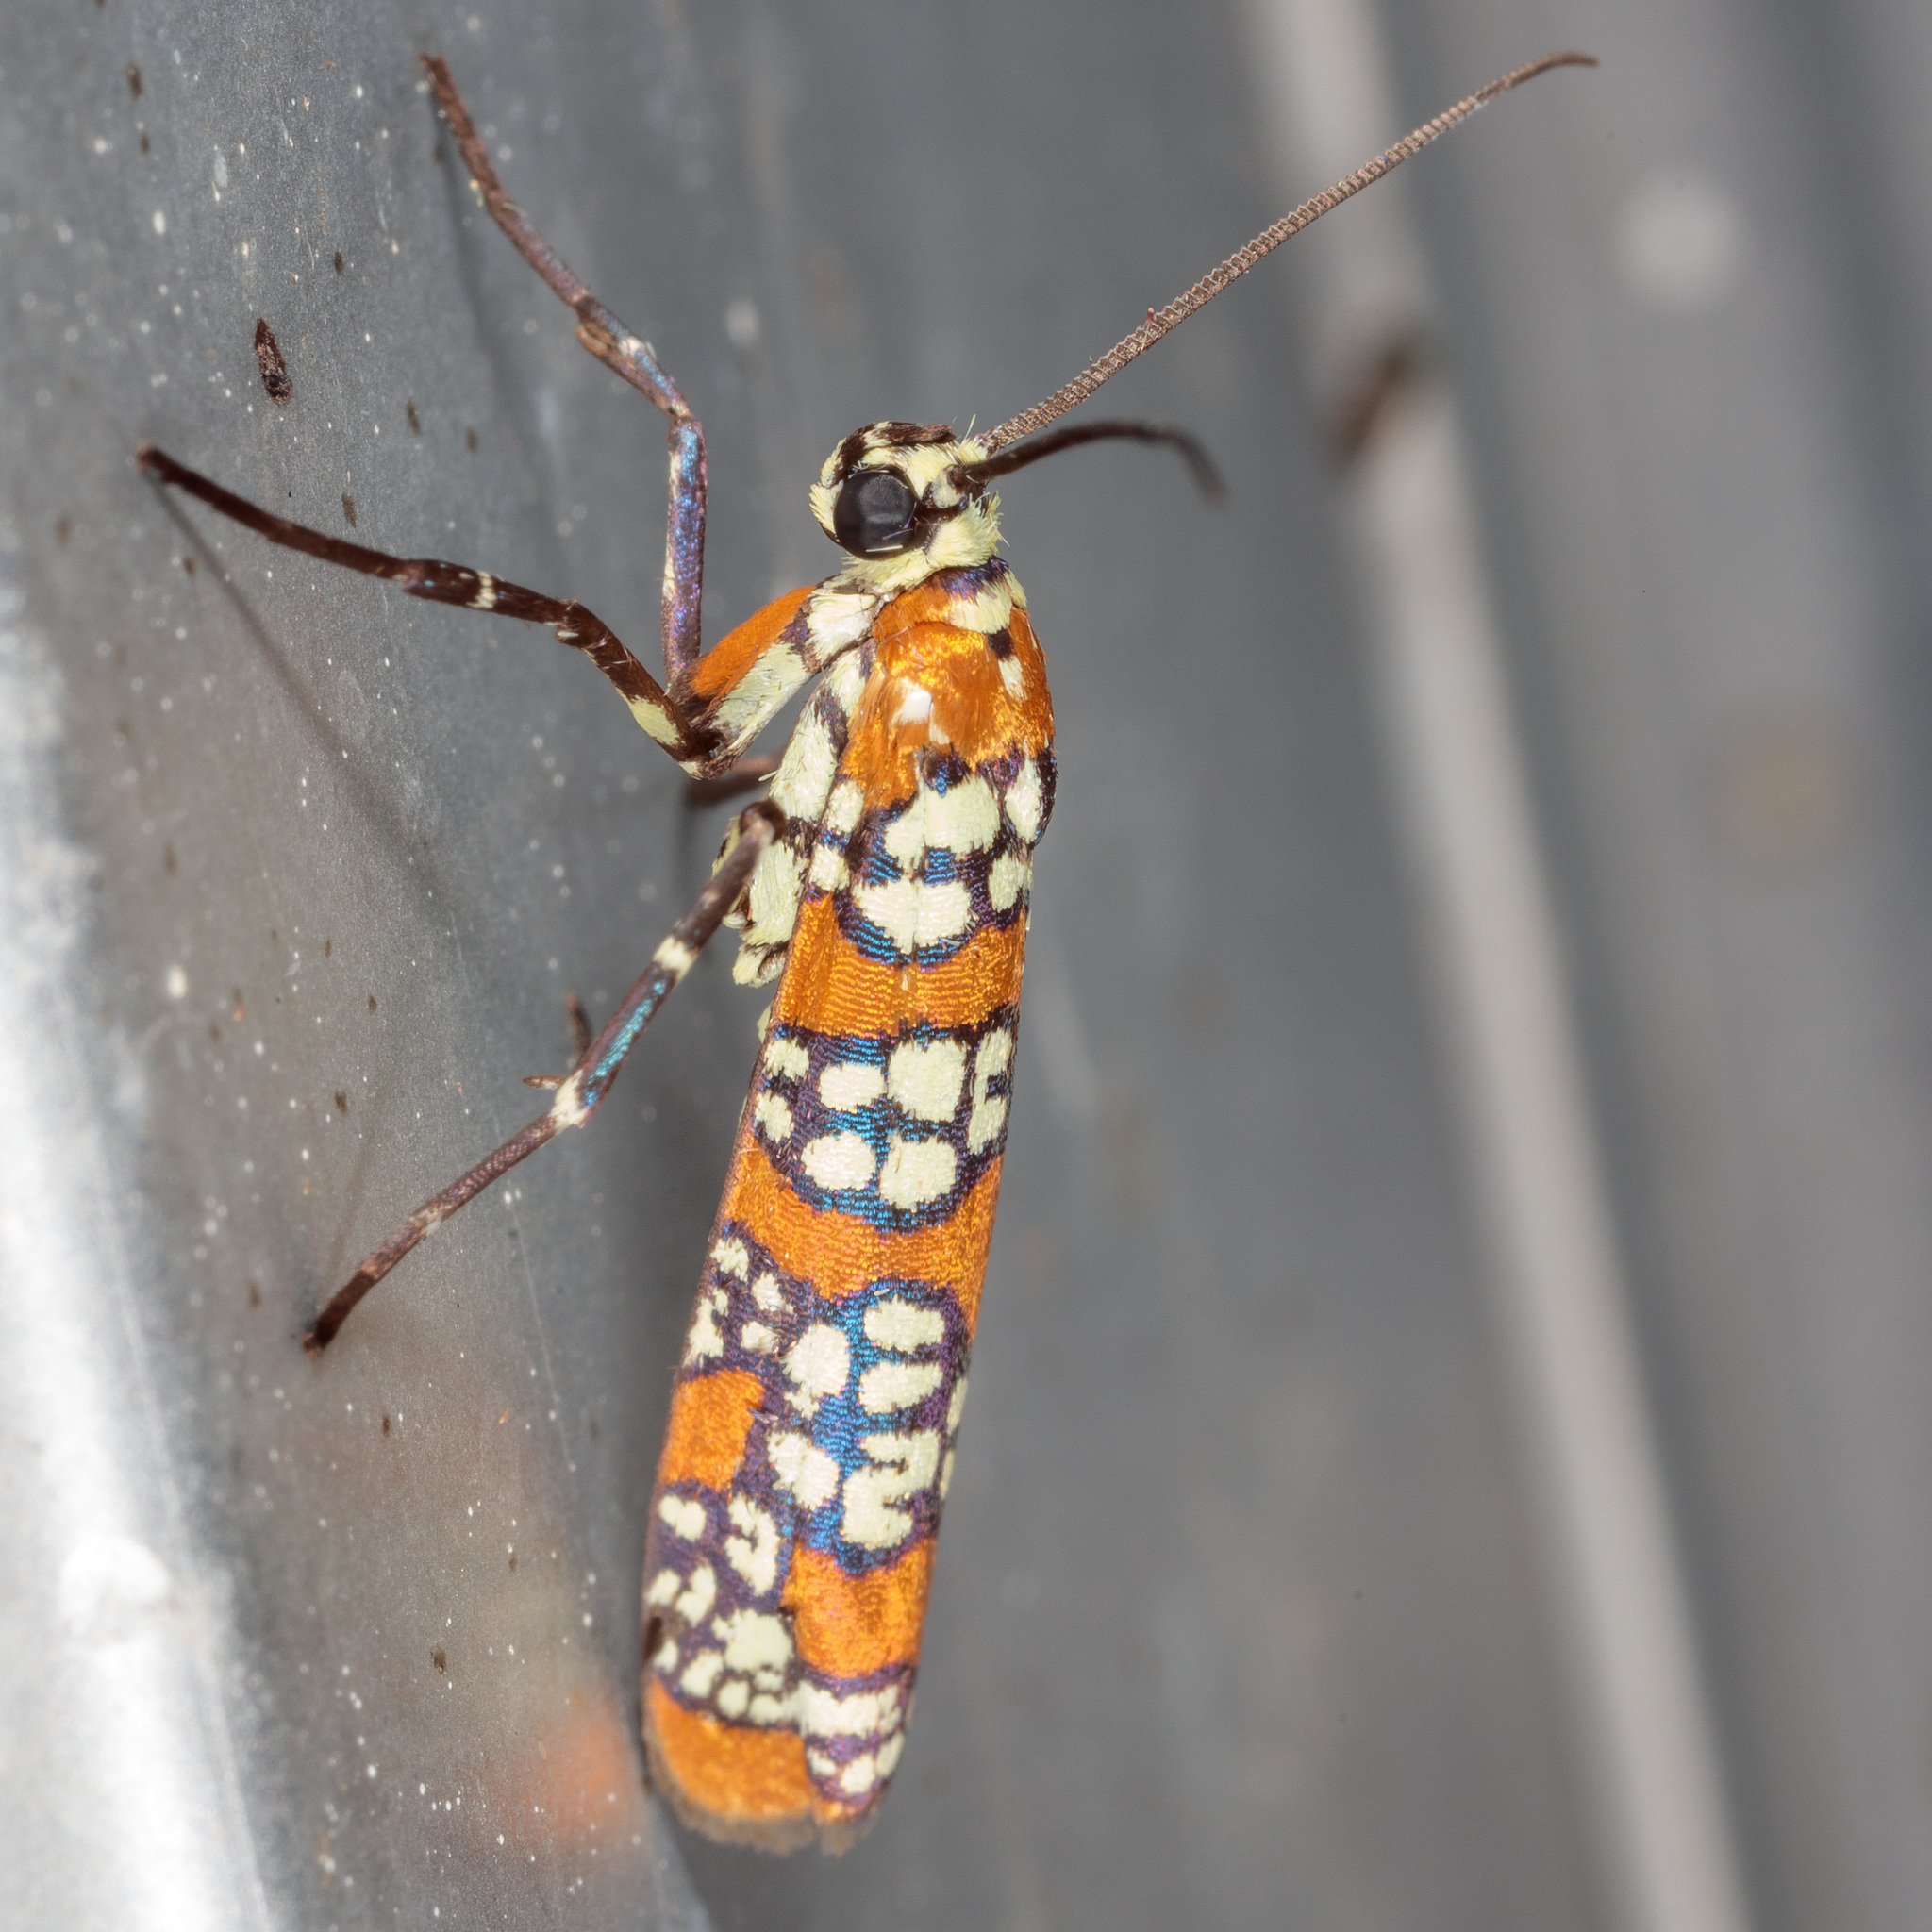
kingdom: Animalia
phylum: Arthropoda
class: Insecta
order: Lepidoptera
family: Attevidae
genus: Atteva
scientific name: Atteva punctella
